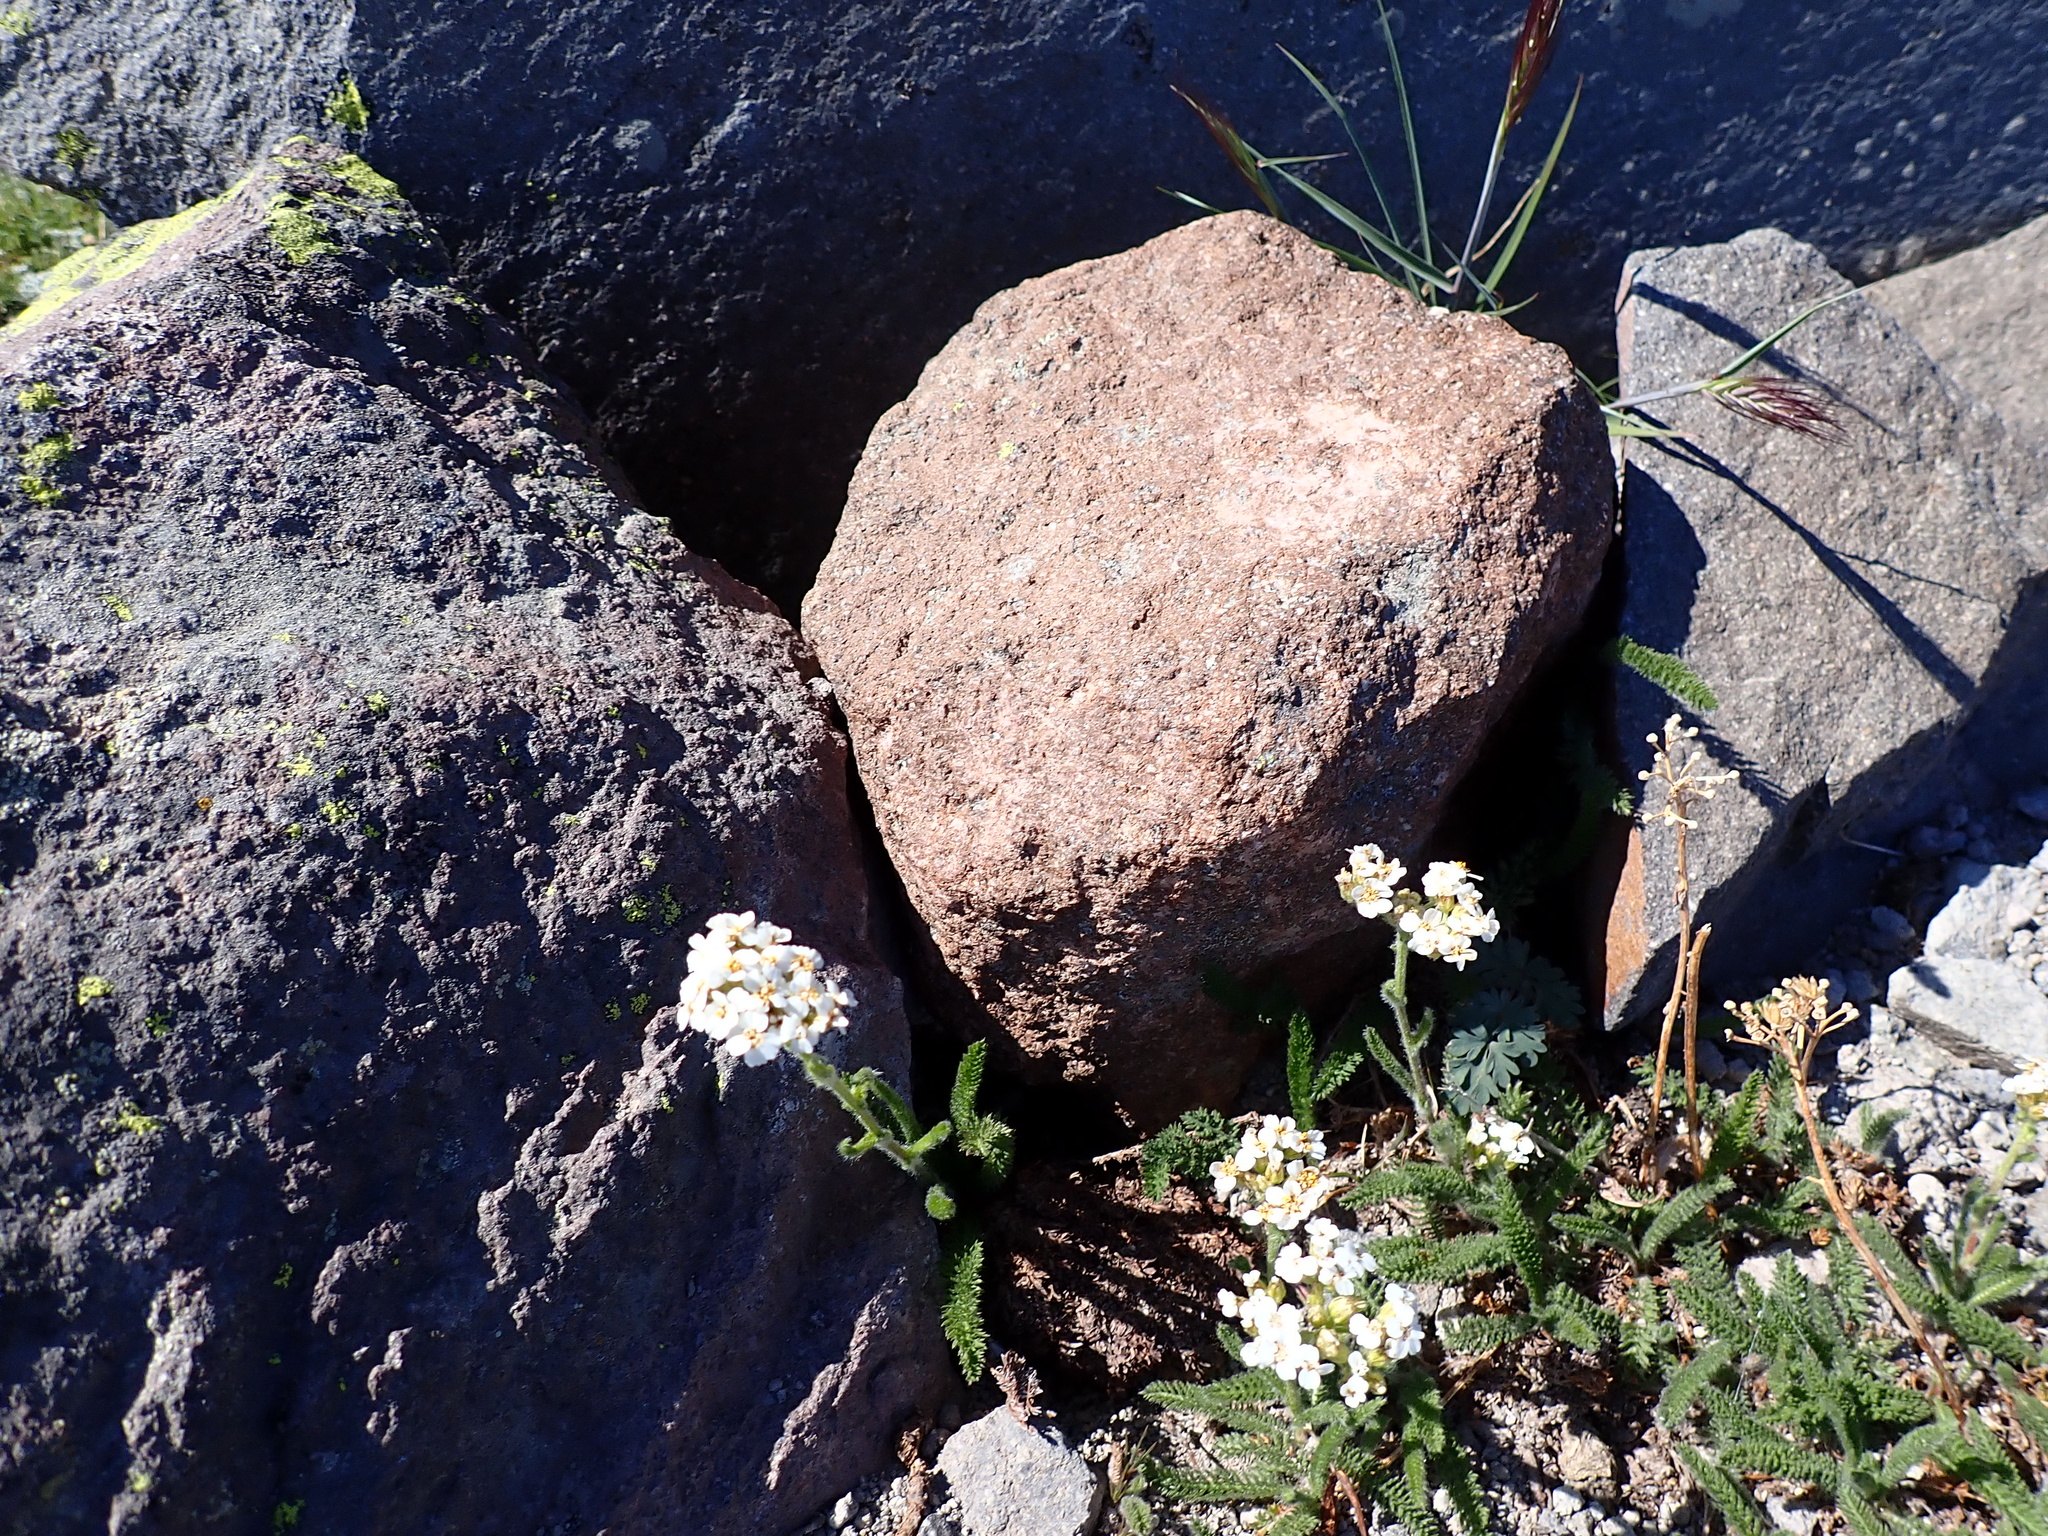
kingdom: Plantae
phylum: Tracheophyta
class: Magnoliopsida
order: Asterales
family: Asteraceae
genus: Achillea
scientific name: Achillea millefolium
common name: Yarrow
